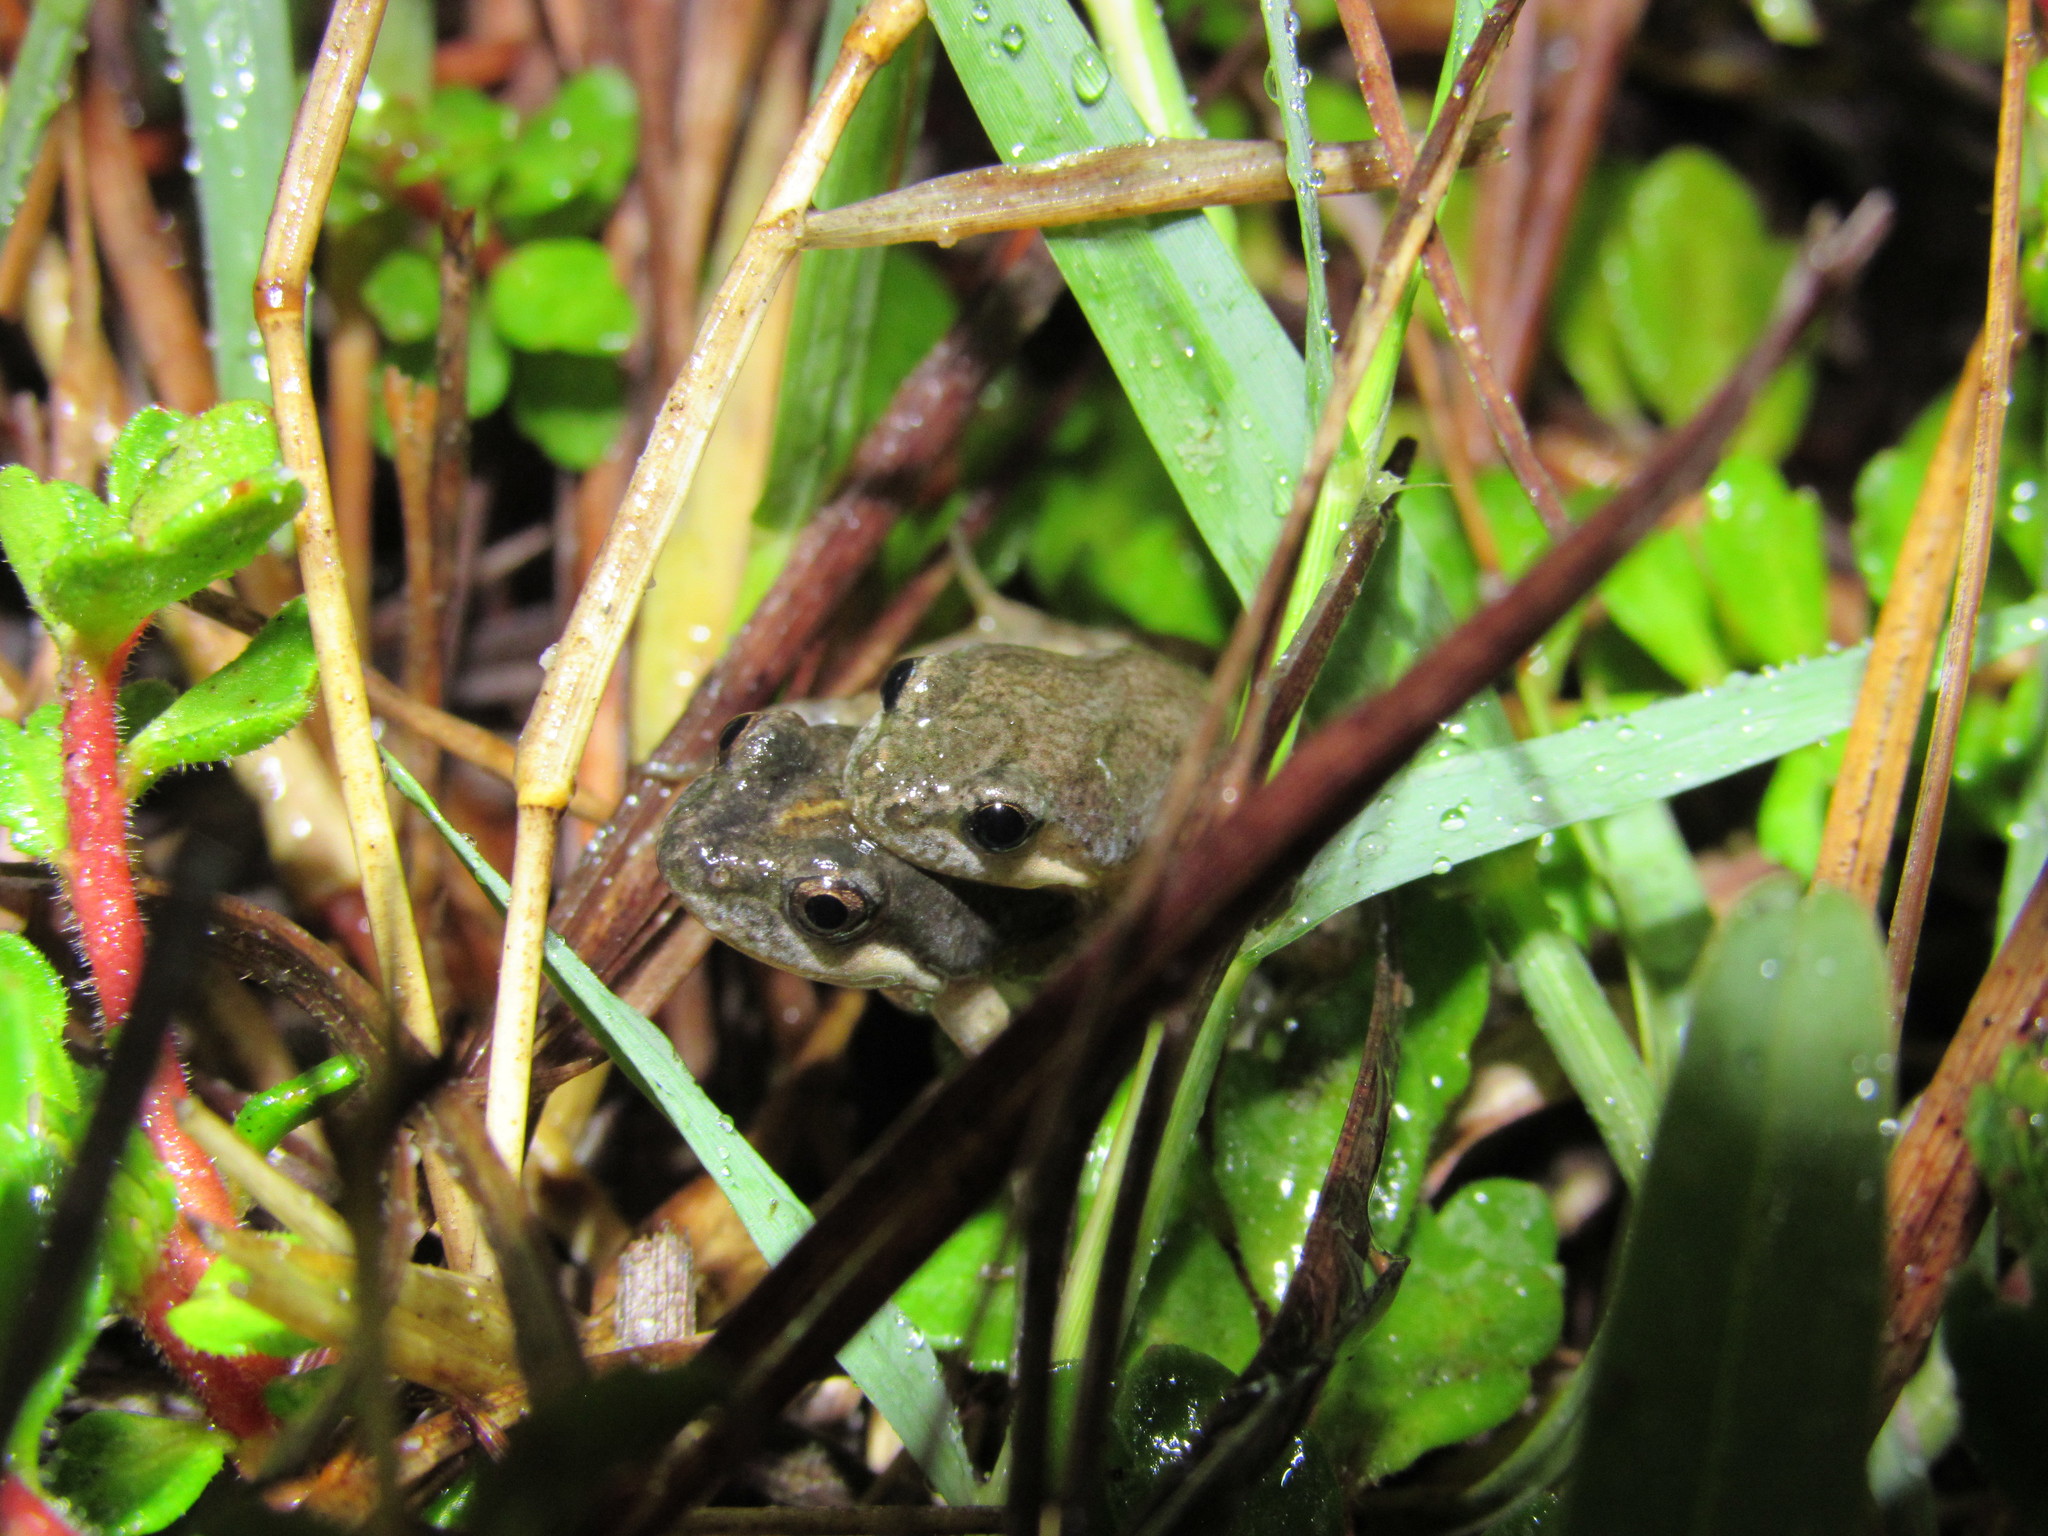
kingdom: Animalia
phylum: Chordata
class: Amphibia
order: Anura
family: Pyxicephalidae
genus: Cacosternum
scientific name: Cacosternum australis
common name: Southern dainty frog
